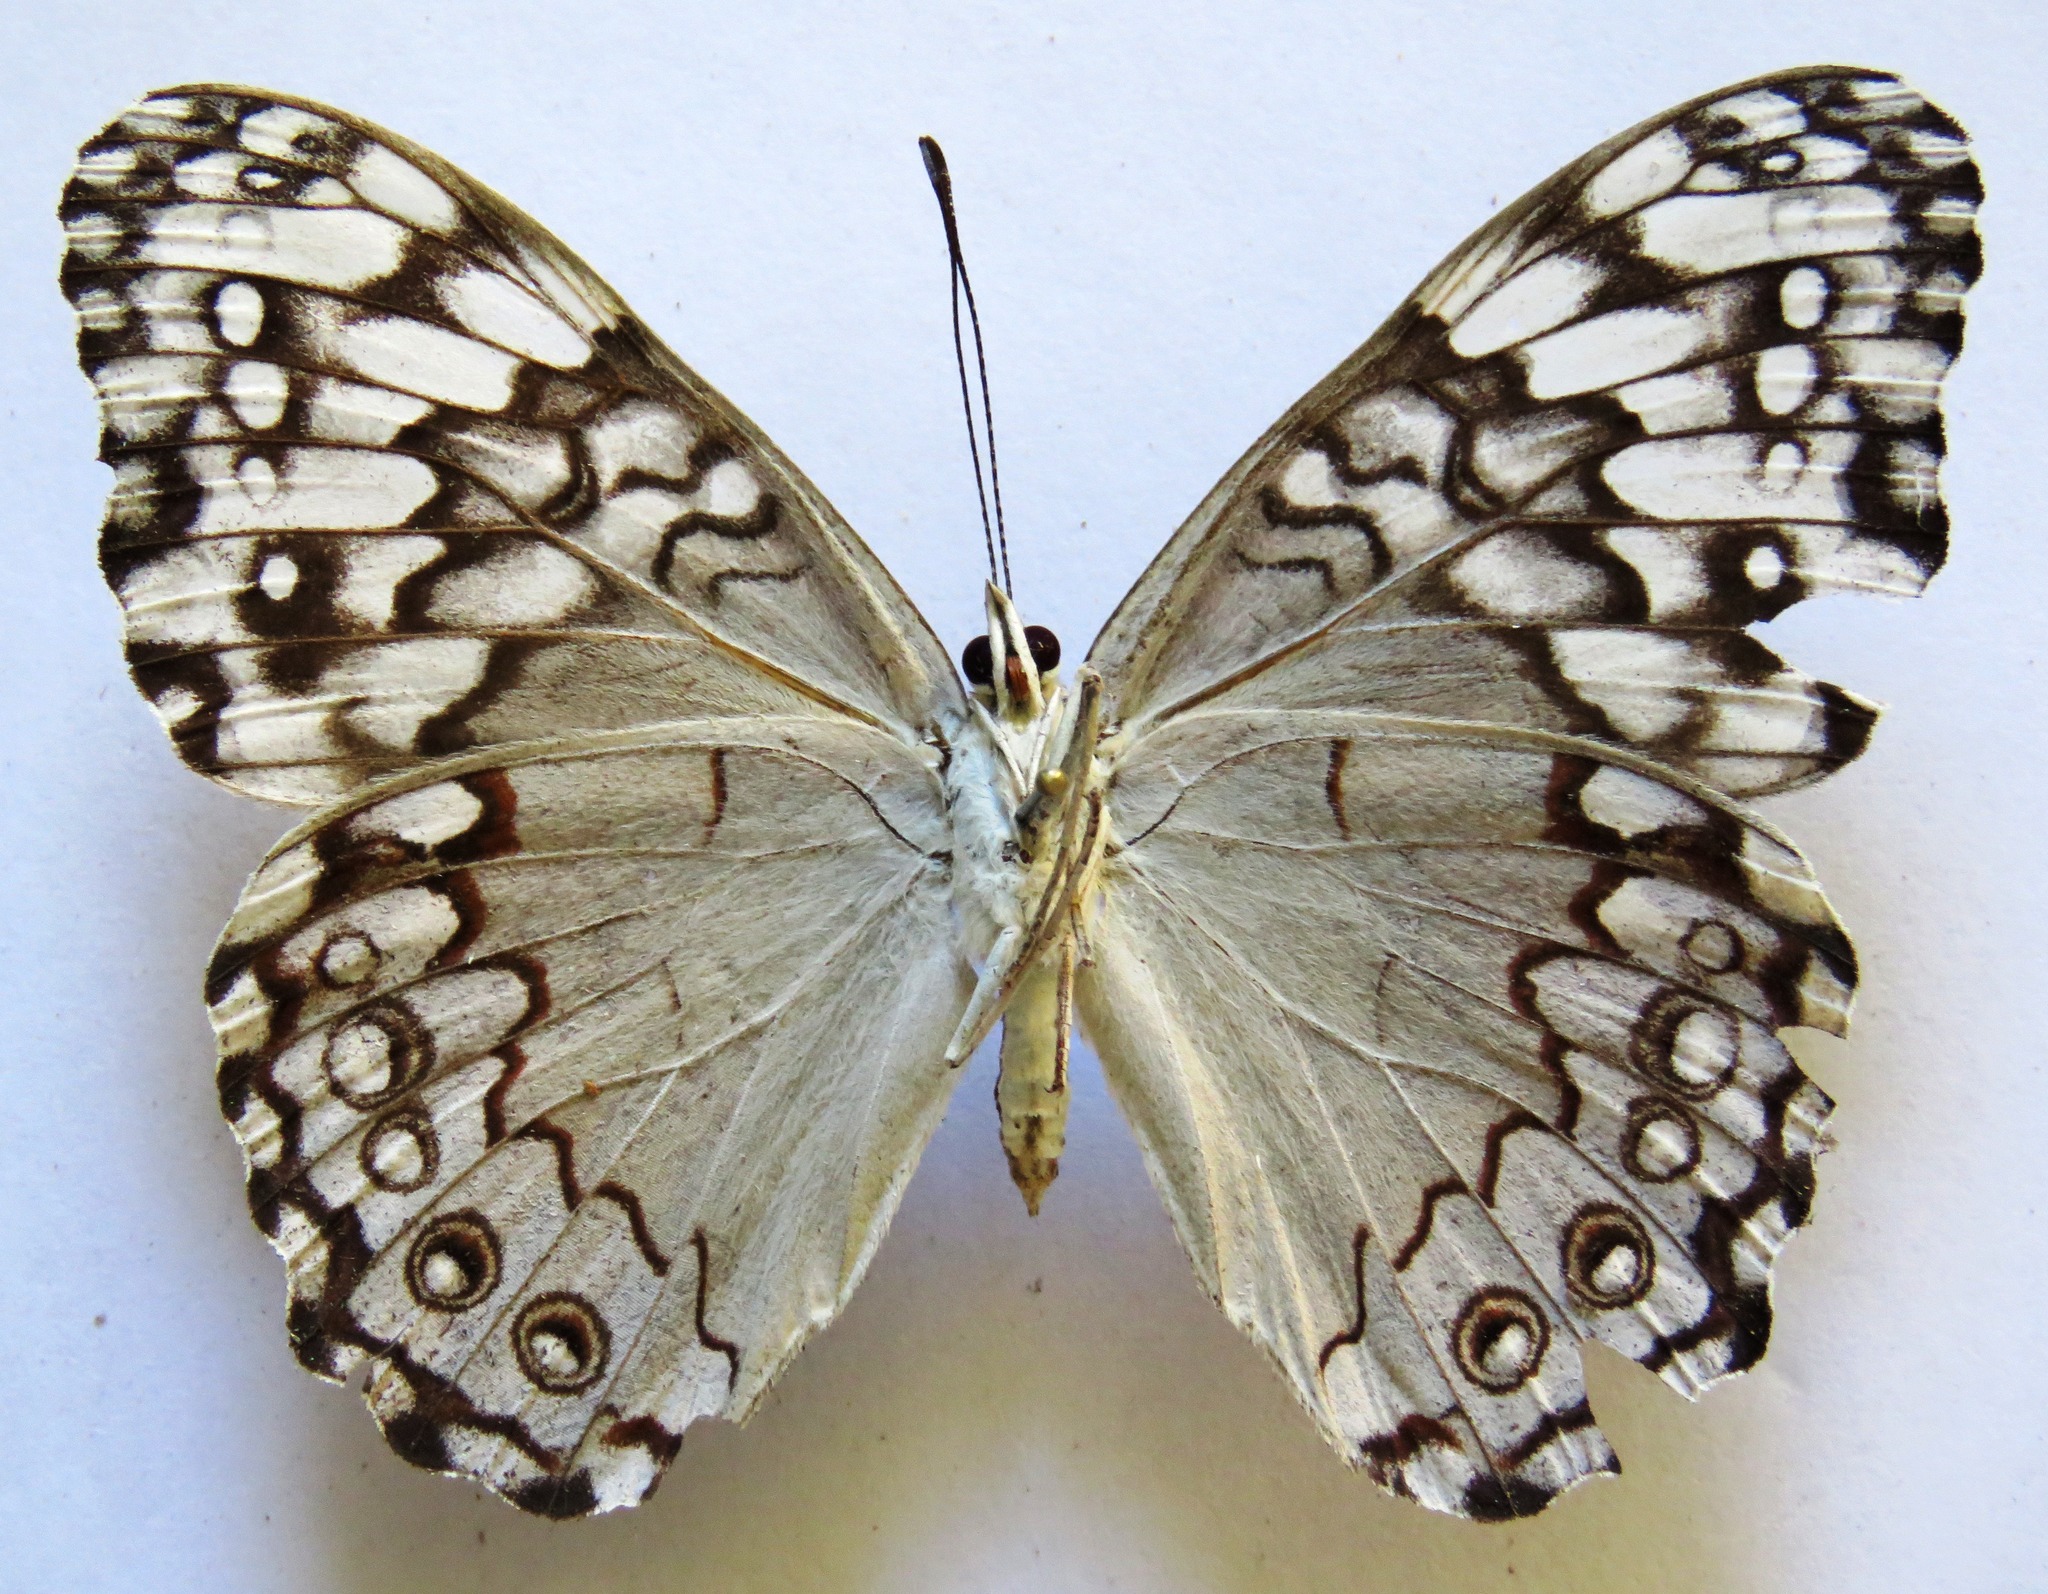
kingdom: Animalia
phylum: Arthropoda
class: Insecta
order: Lepidoptera
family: Nymphalidae
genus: Hamadryas
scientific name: Hamadryas glauconome
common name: Glaucous cracker
